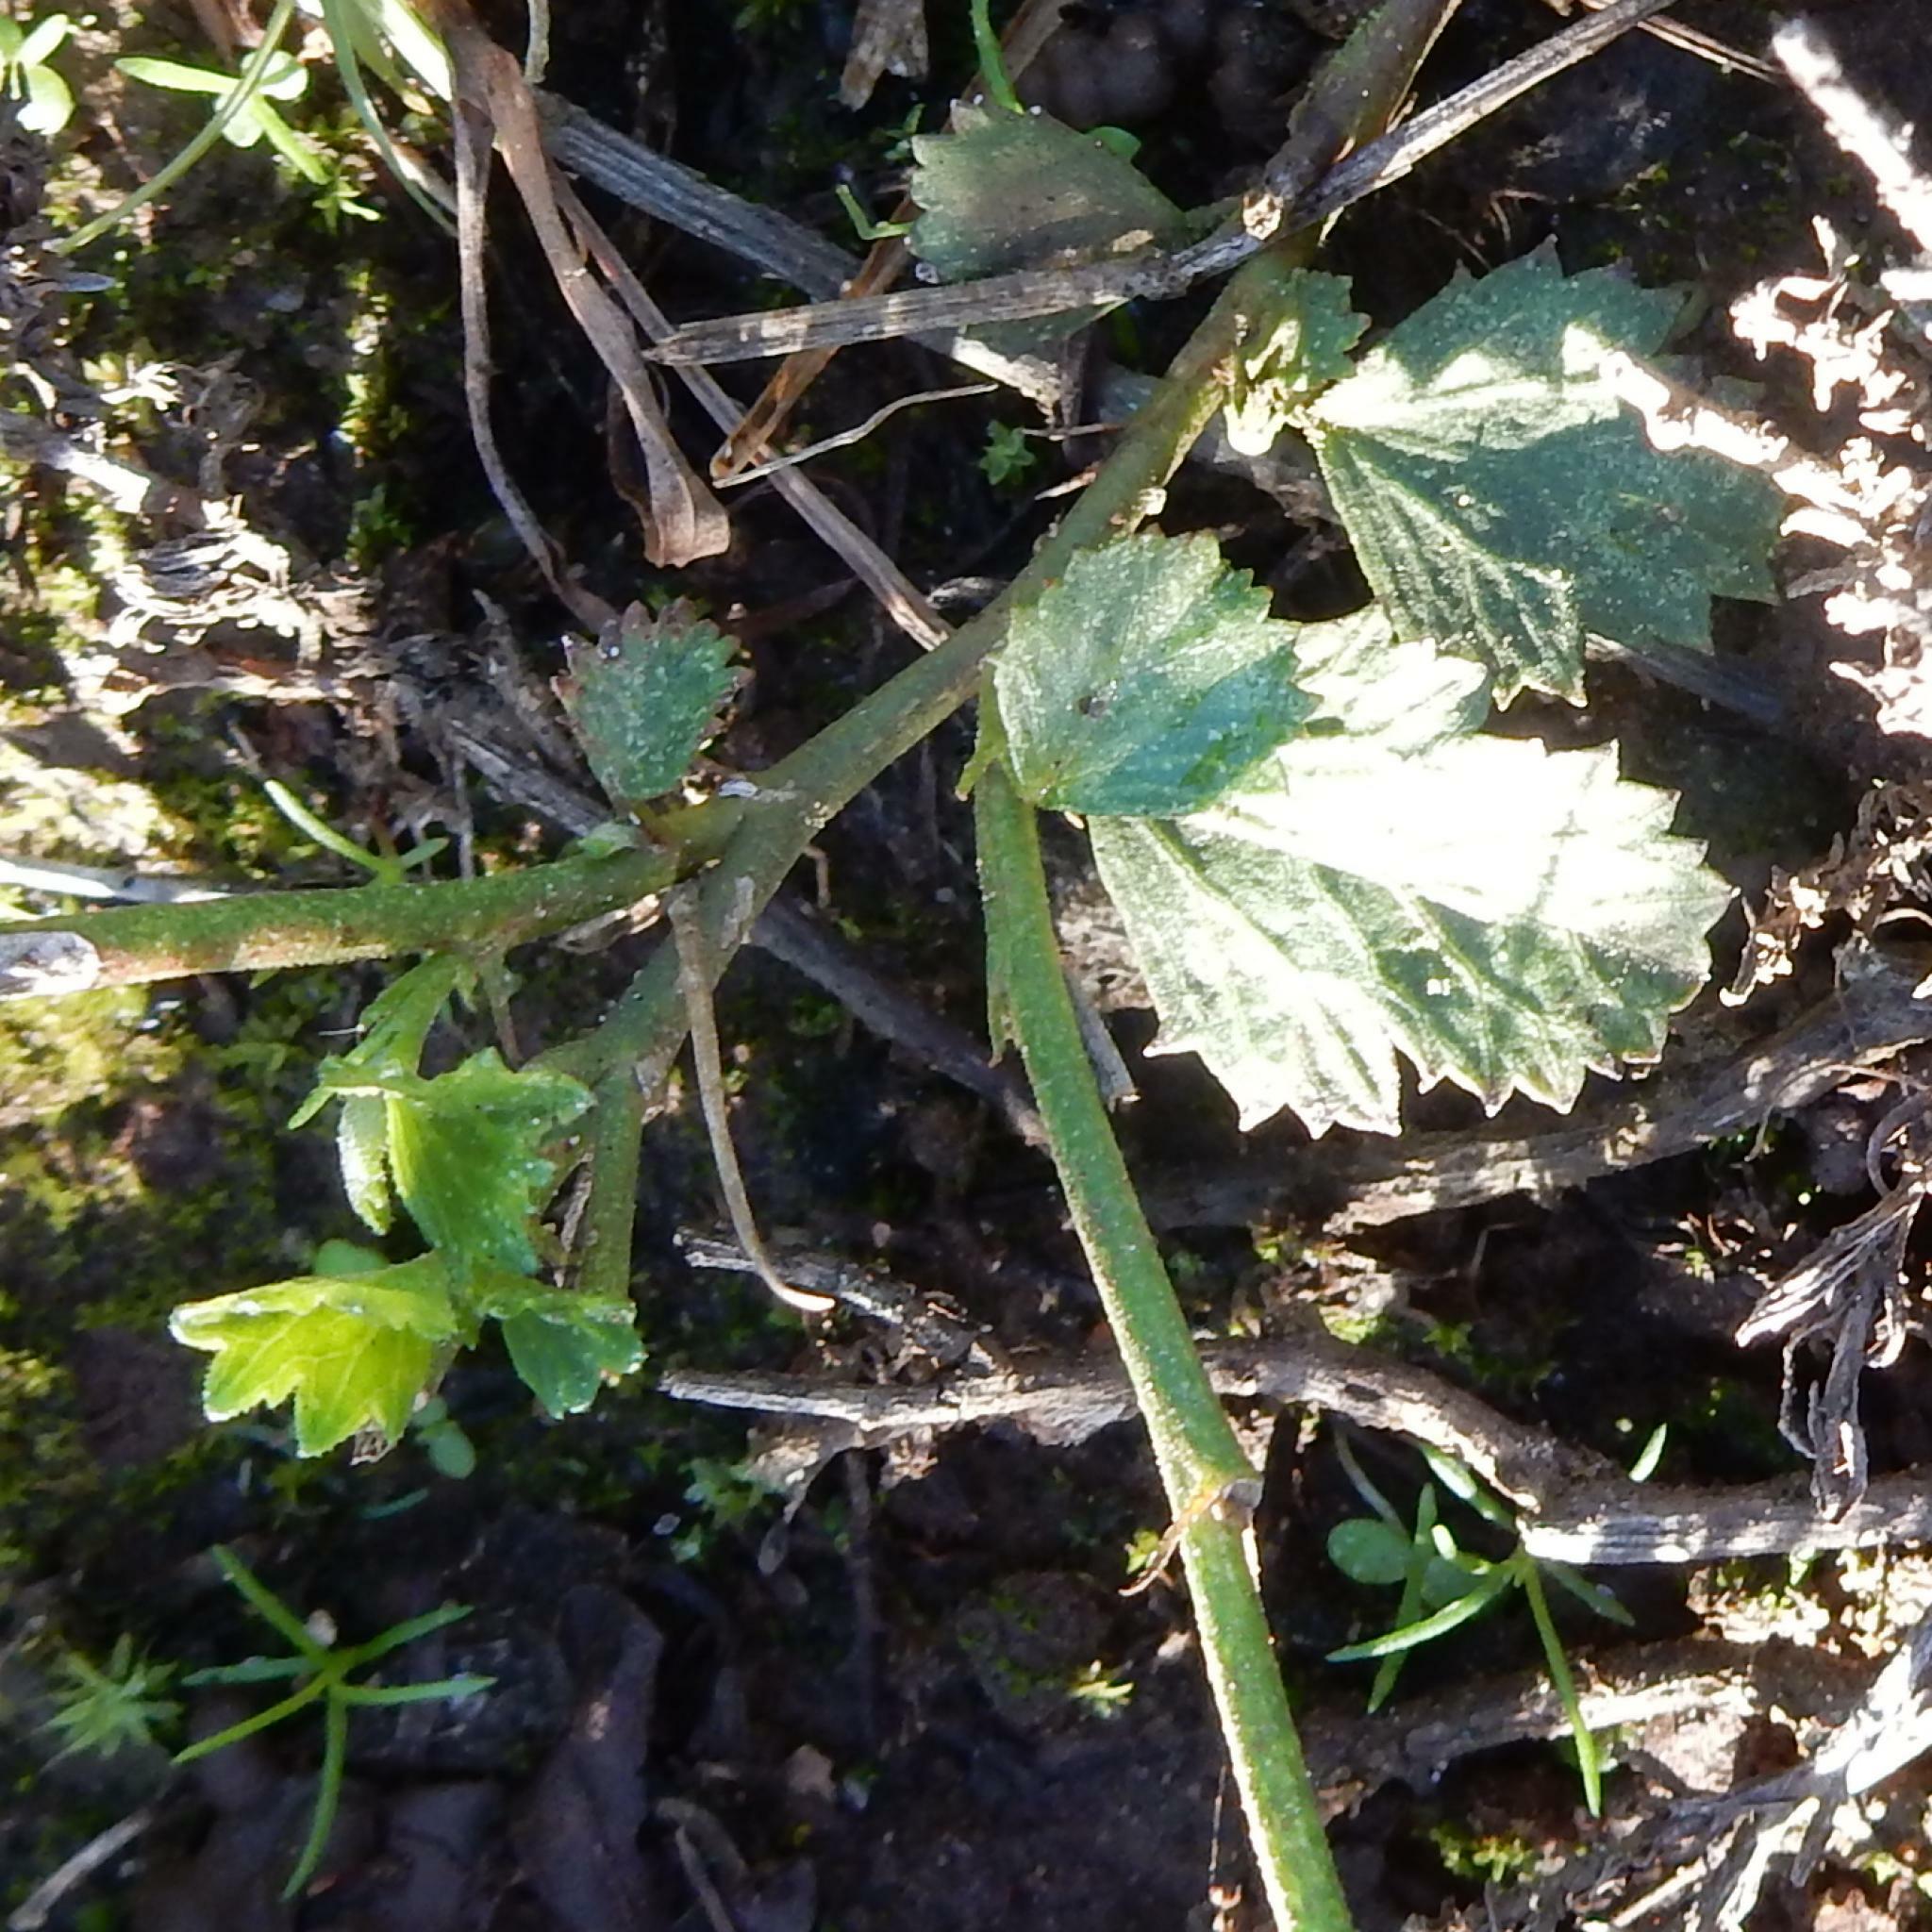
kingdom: Plantae
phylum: Tracheophyta
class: Magnoliopsida
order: Malvales
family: Malvaceae
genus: Hibiscus
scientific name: Hibiscus pusillus
